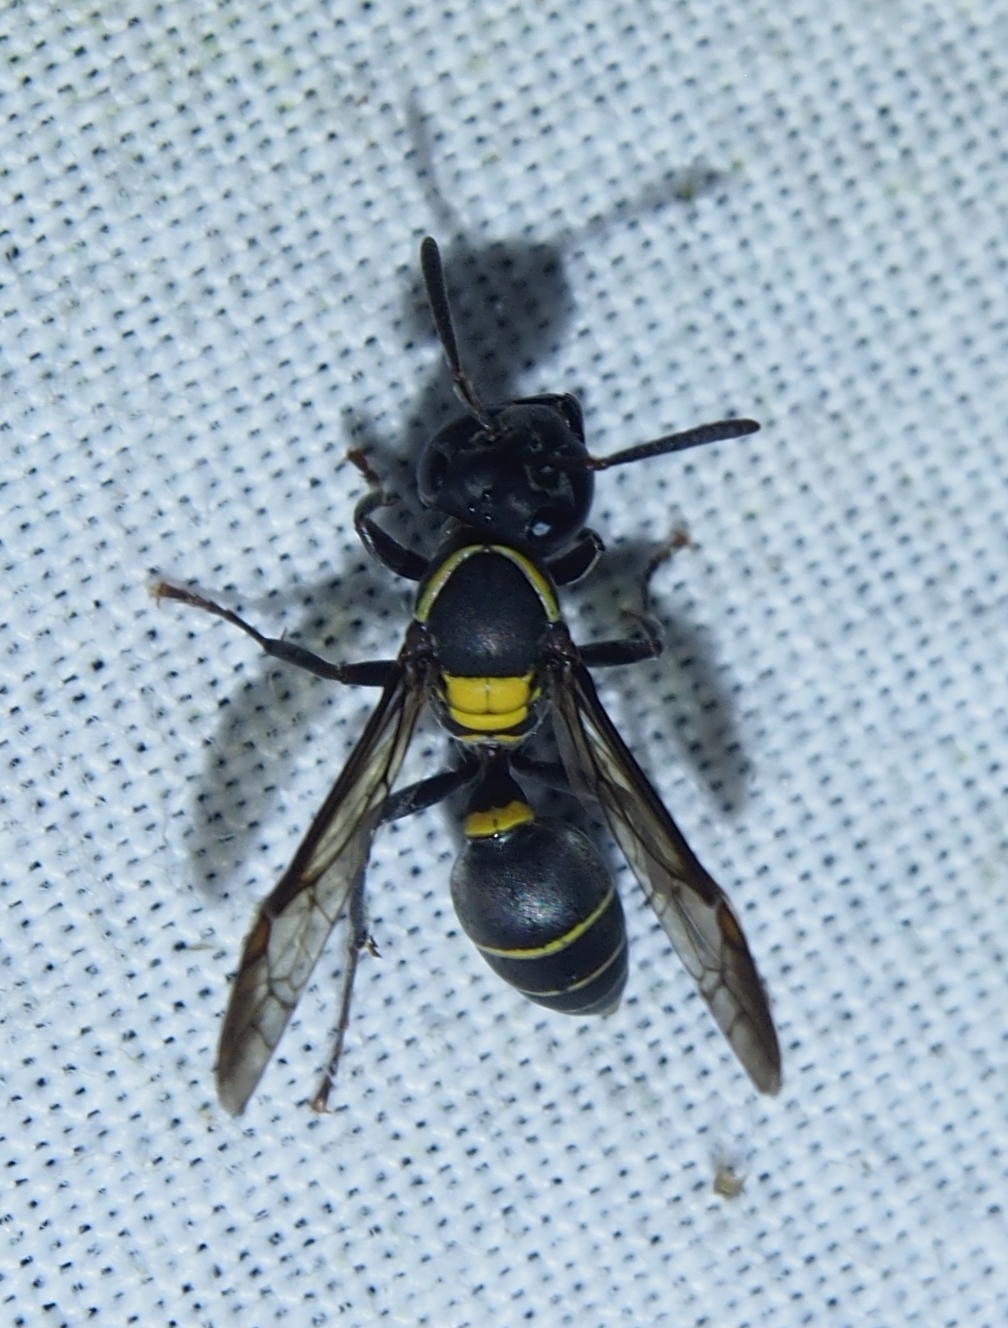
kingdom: Animalia
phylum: Arthropoda
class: Insecta
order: Hymenoptera
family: Eumenidae
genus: Polybia
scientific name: Polybia occidentalis
